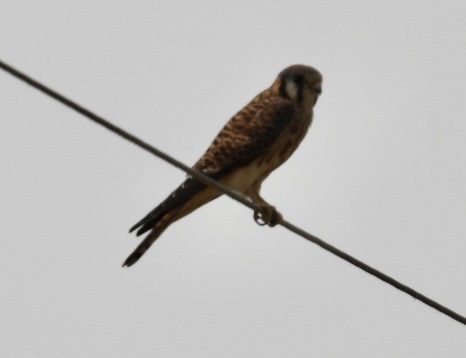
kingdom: Animalia
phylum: Chordata
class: Aves
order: Falconiformes
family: Falconidae
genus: Falco
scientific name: Falco sparverius
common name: American kestrel
